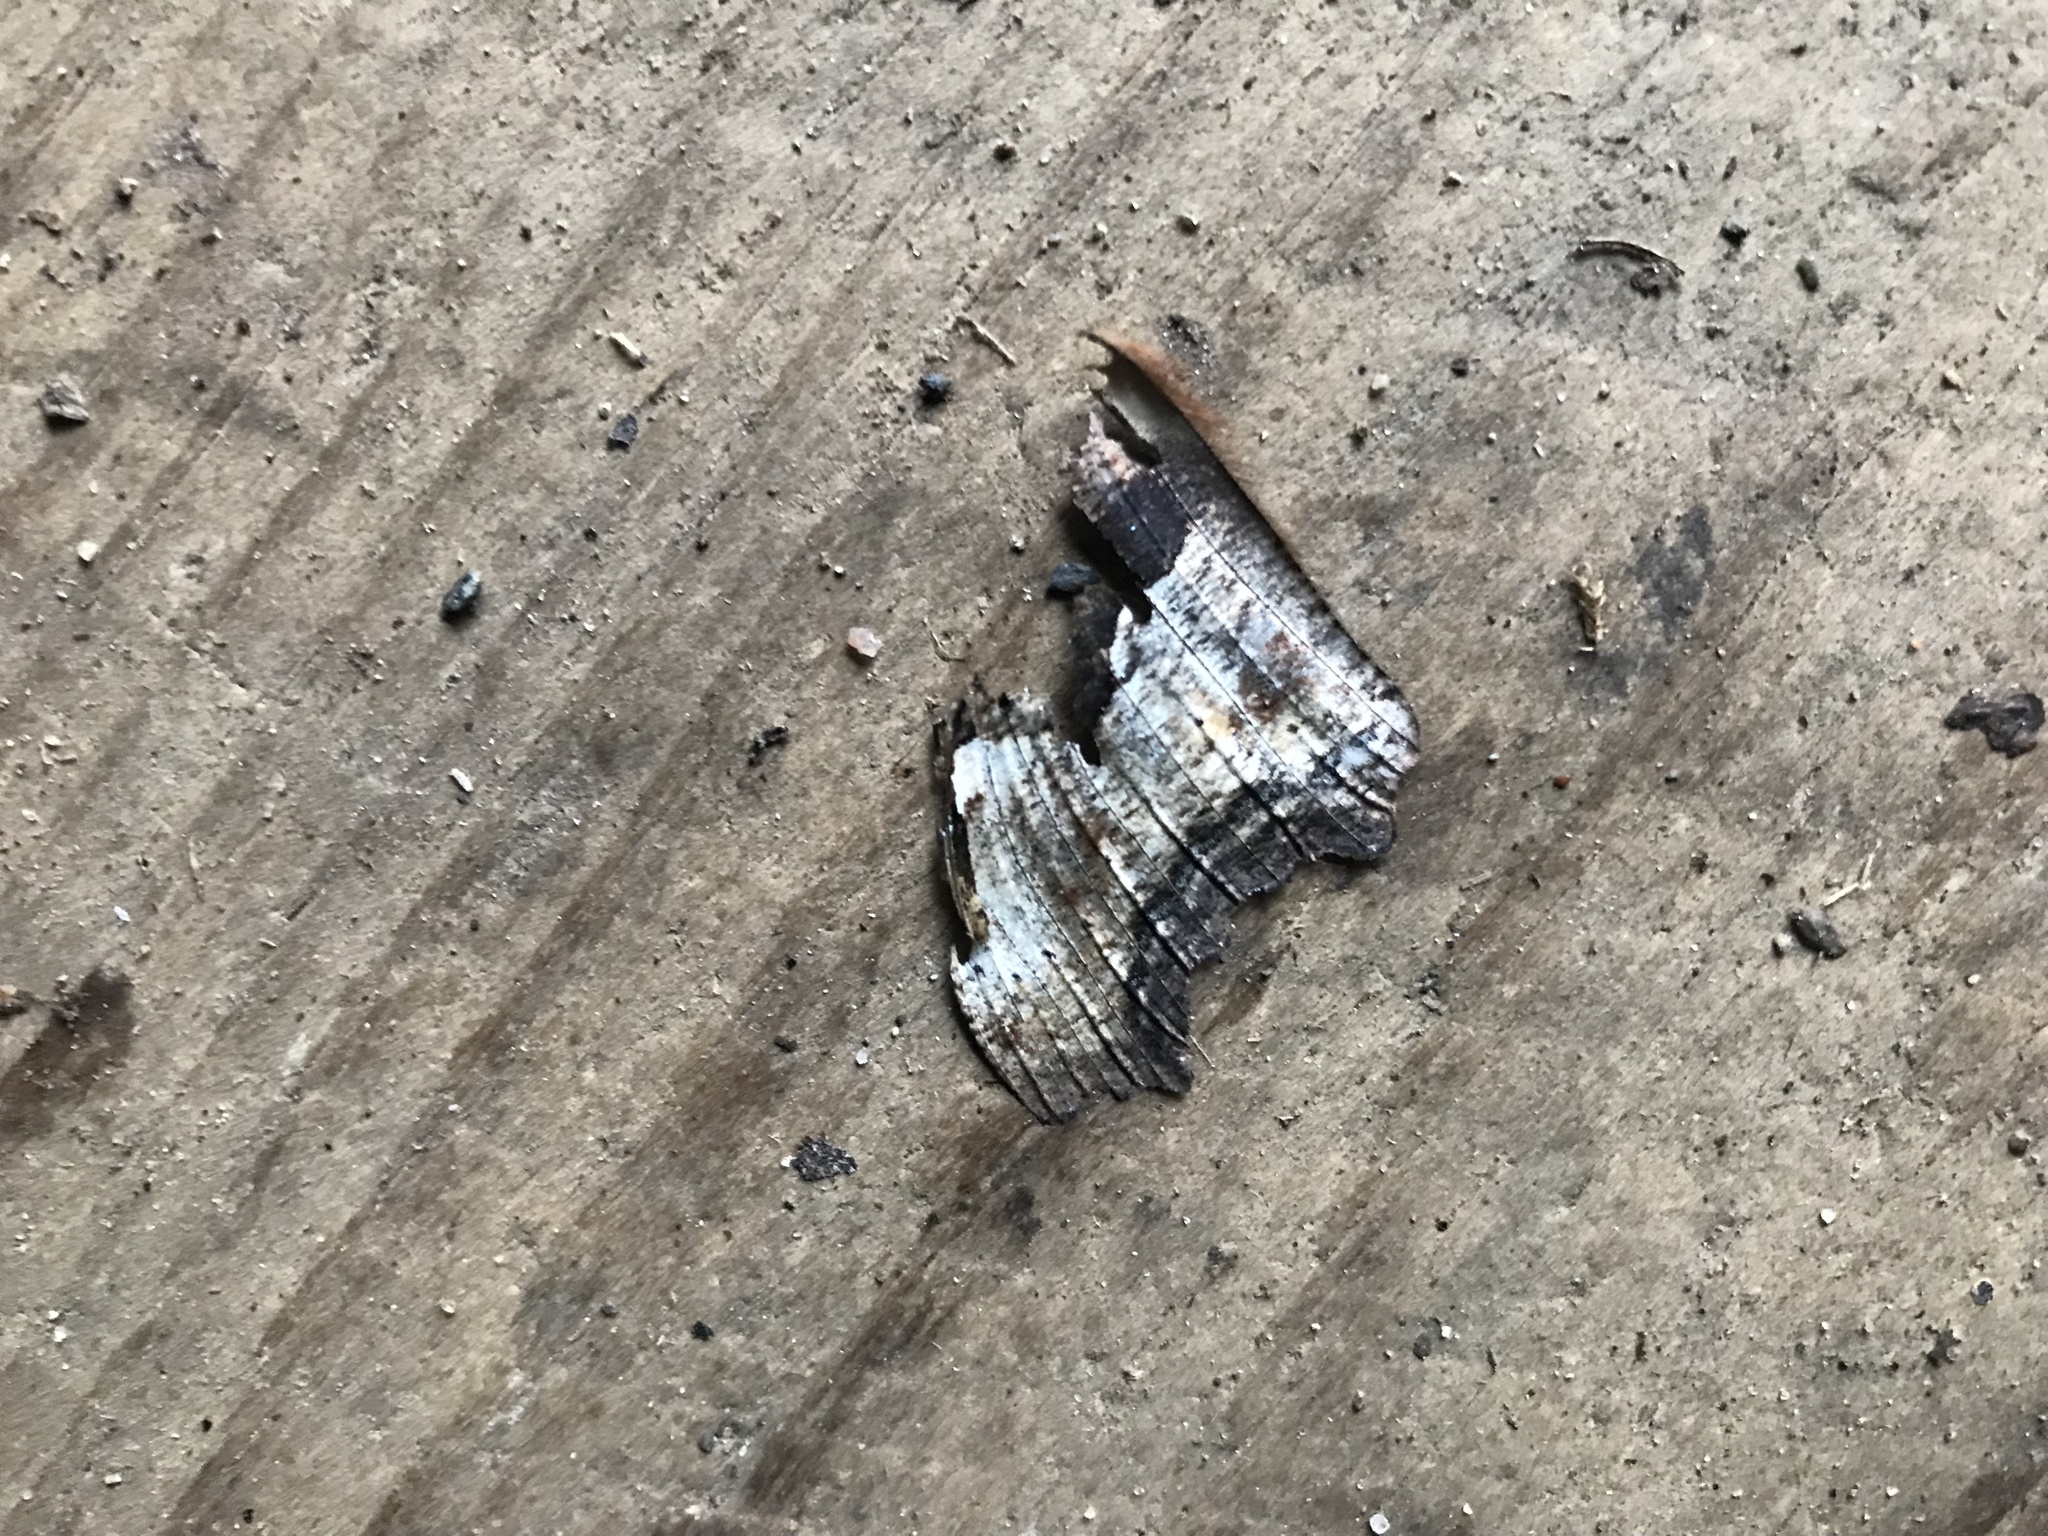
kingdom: Animalia
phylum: Arthropoda
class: Insecta
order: Lepidoptera
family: Nymphalidae
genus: Polygonia
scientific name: Polygonia vaualbum
